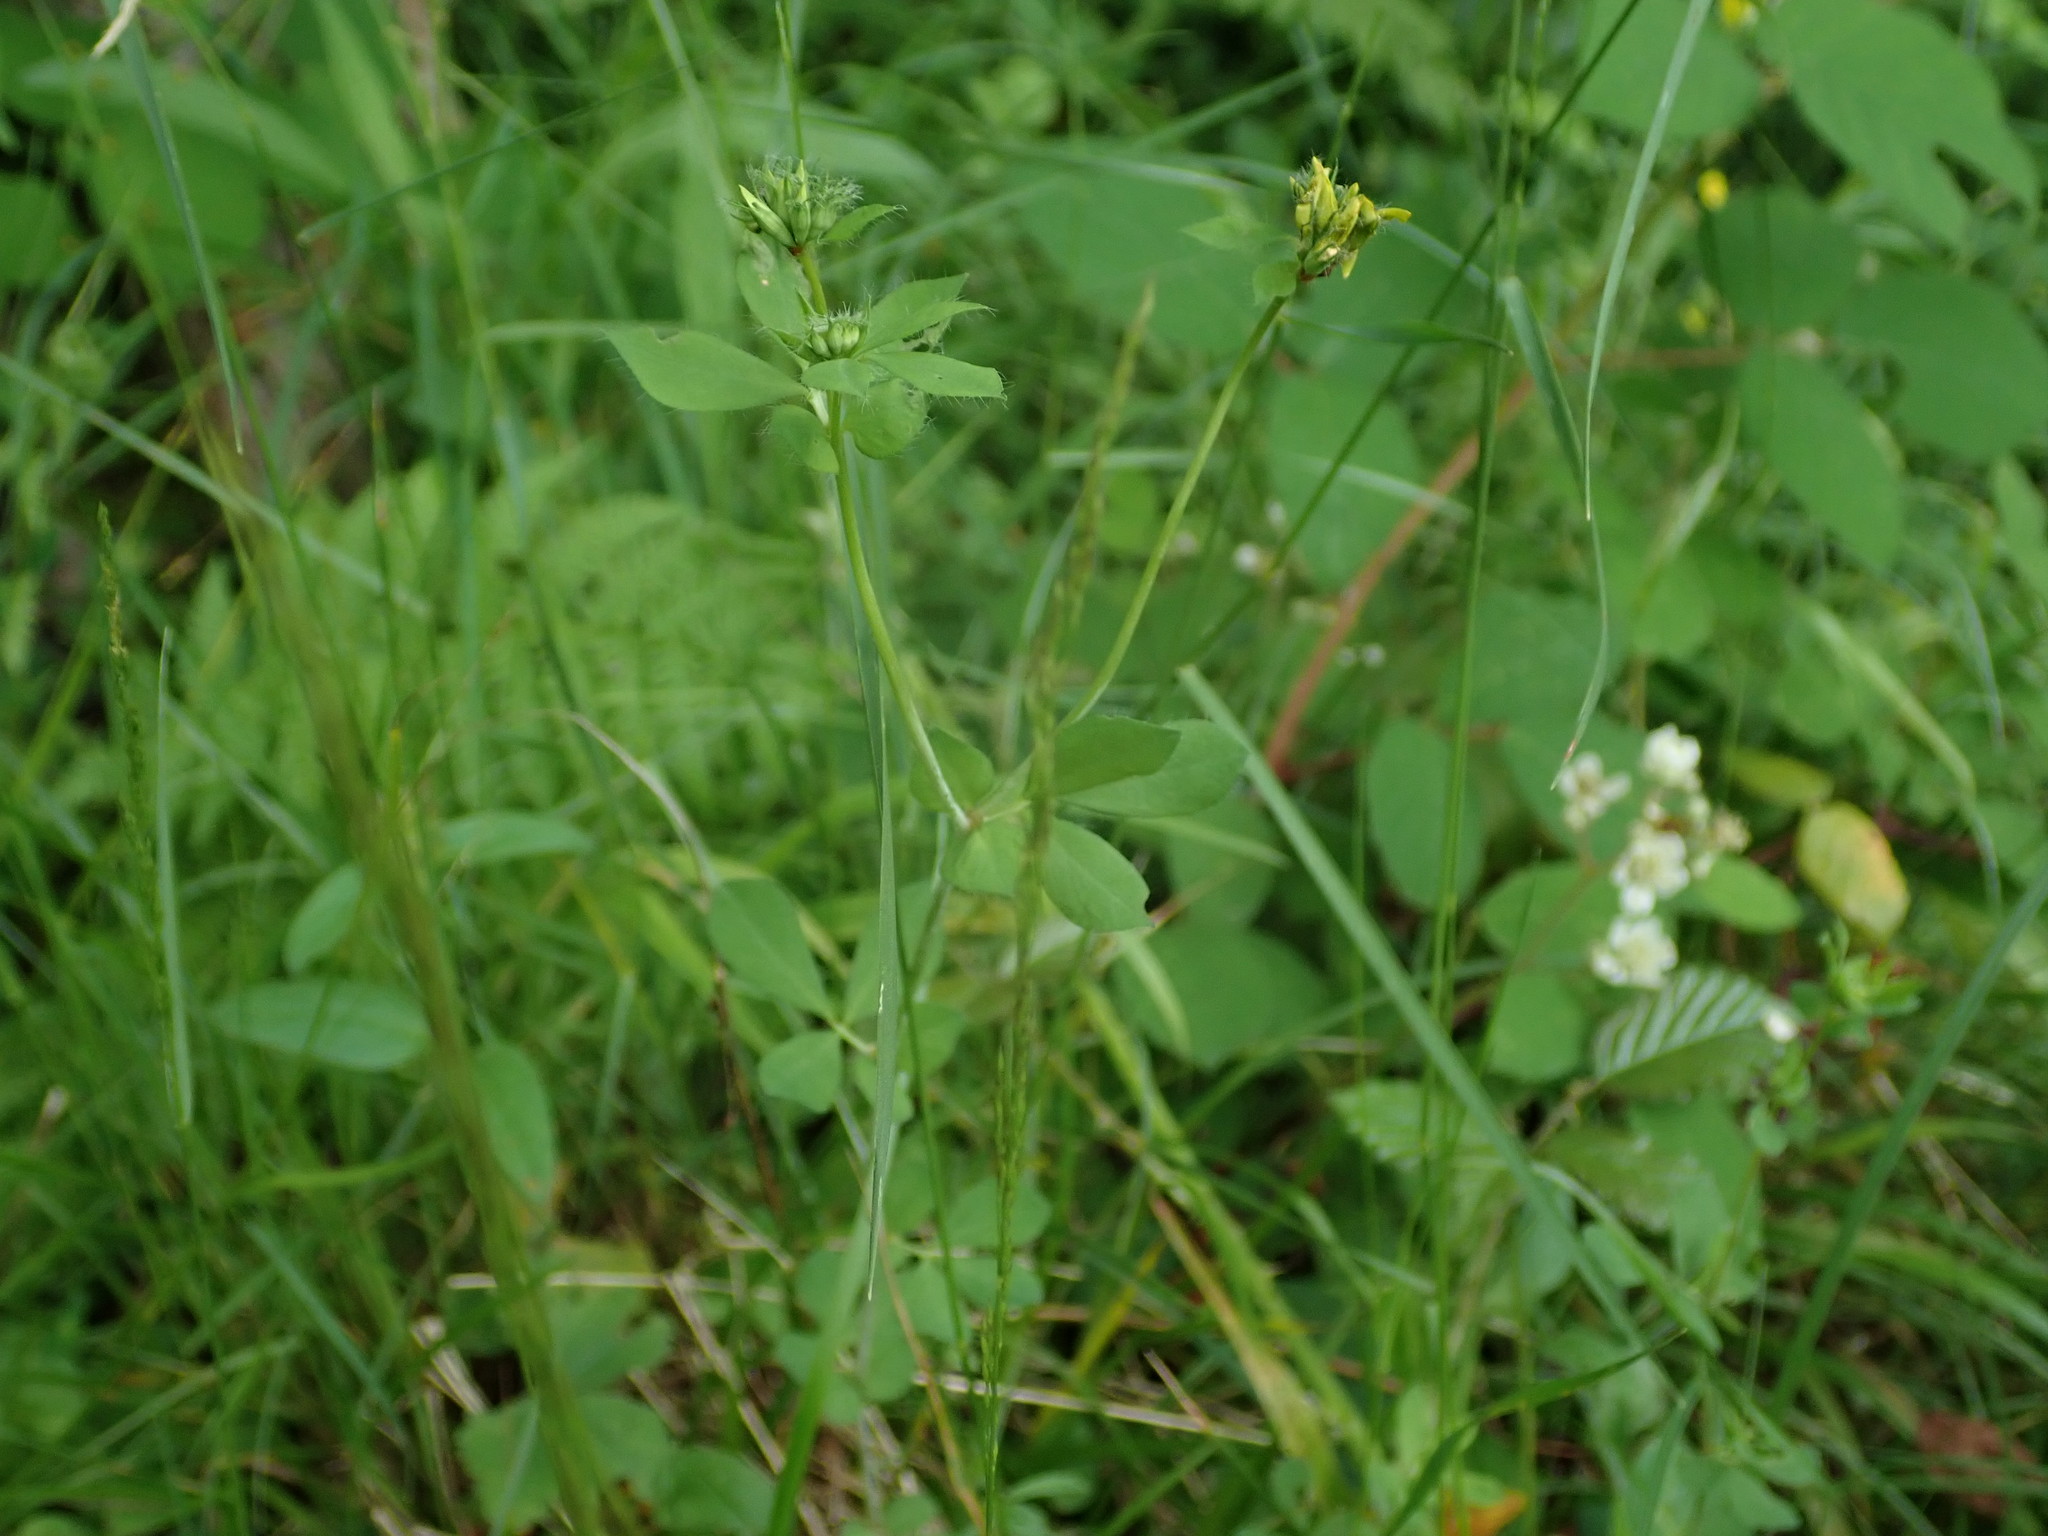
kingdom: Plantae
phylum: Tracheophyta
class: Magnoliopsida
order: Fabales
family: Fabaceae
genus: Lotus
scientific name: Lotus pedunculatus
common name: Greater birdsfoot-trefoil
